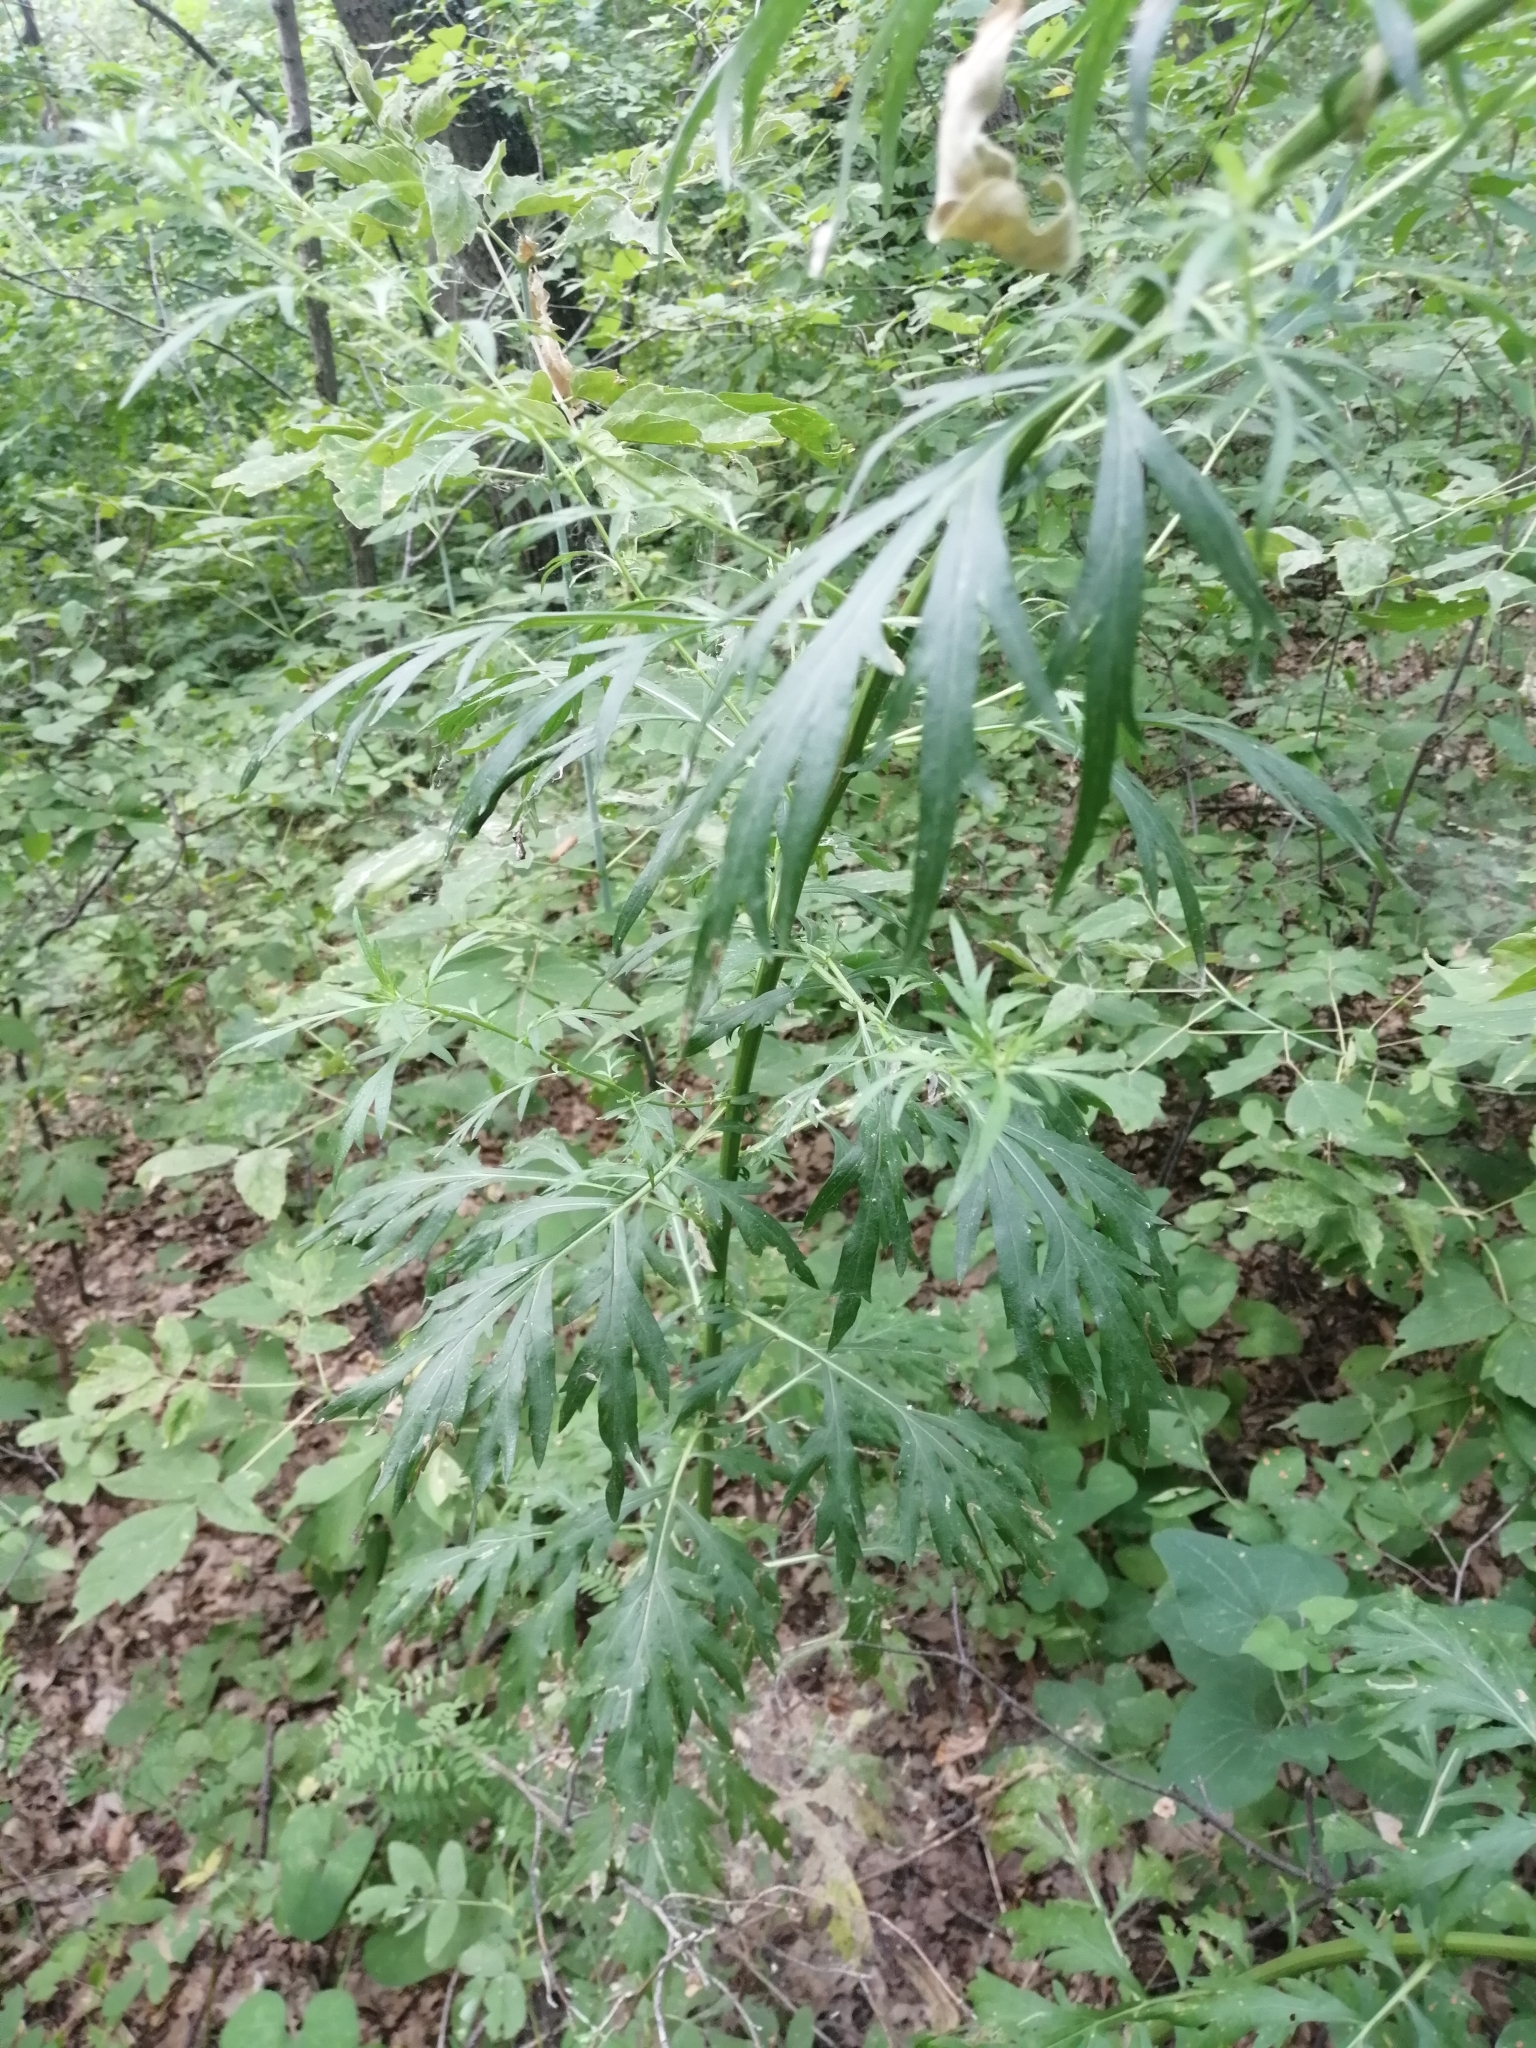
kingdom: Plantae
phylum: Tracheophyta
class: Magnoliopsida
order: Asterales
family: Asteraceae
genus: Artemisia
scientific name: Artemisia vulgaris
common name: Mugwort
